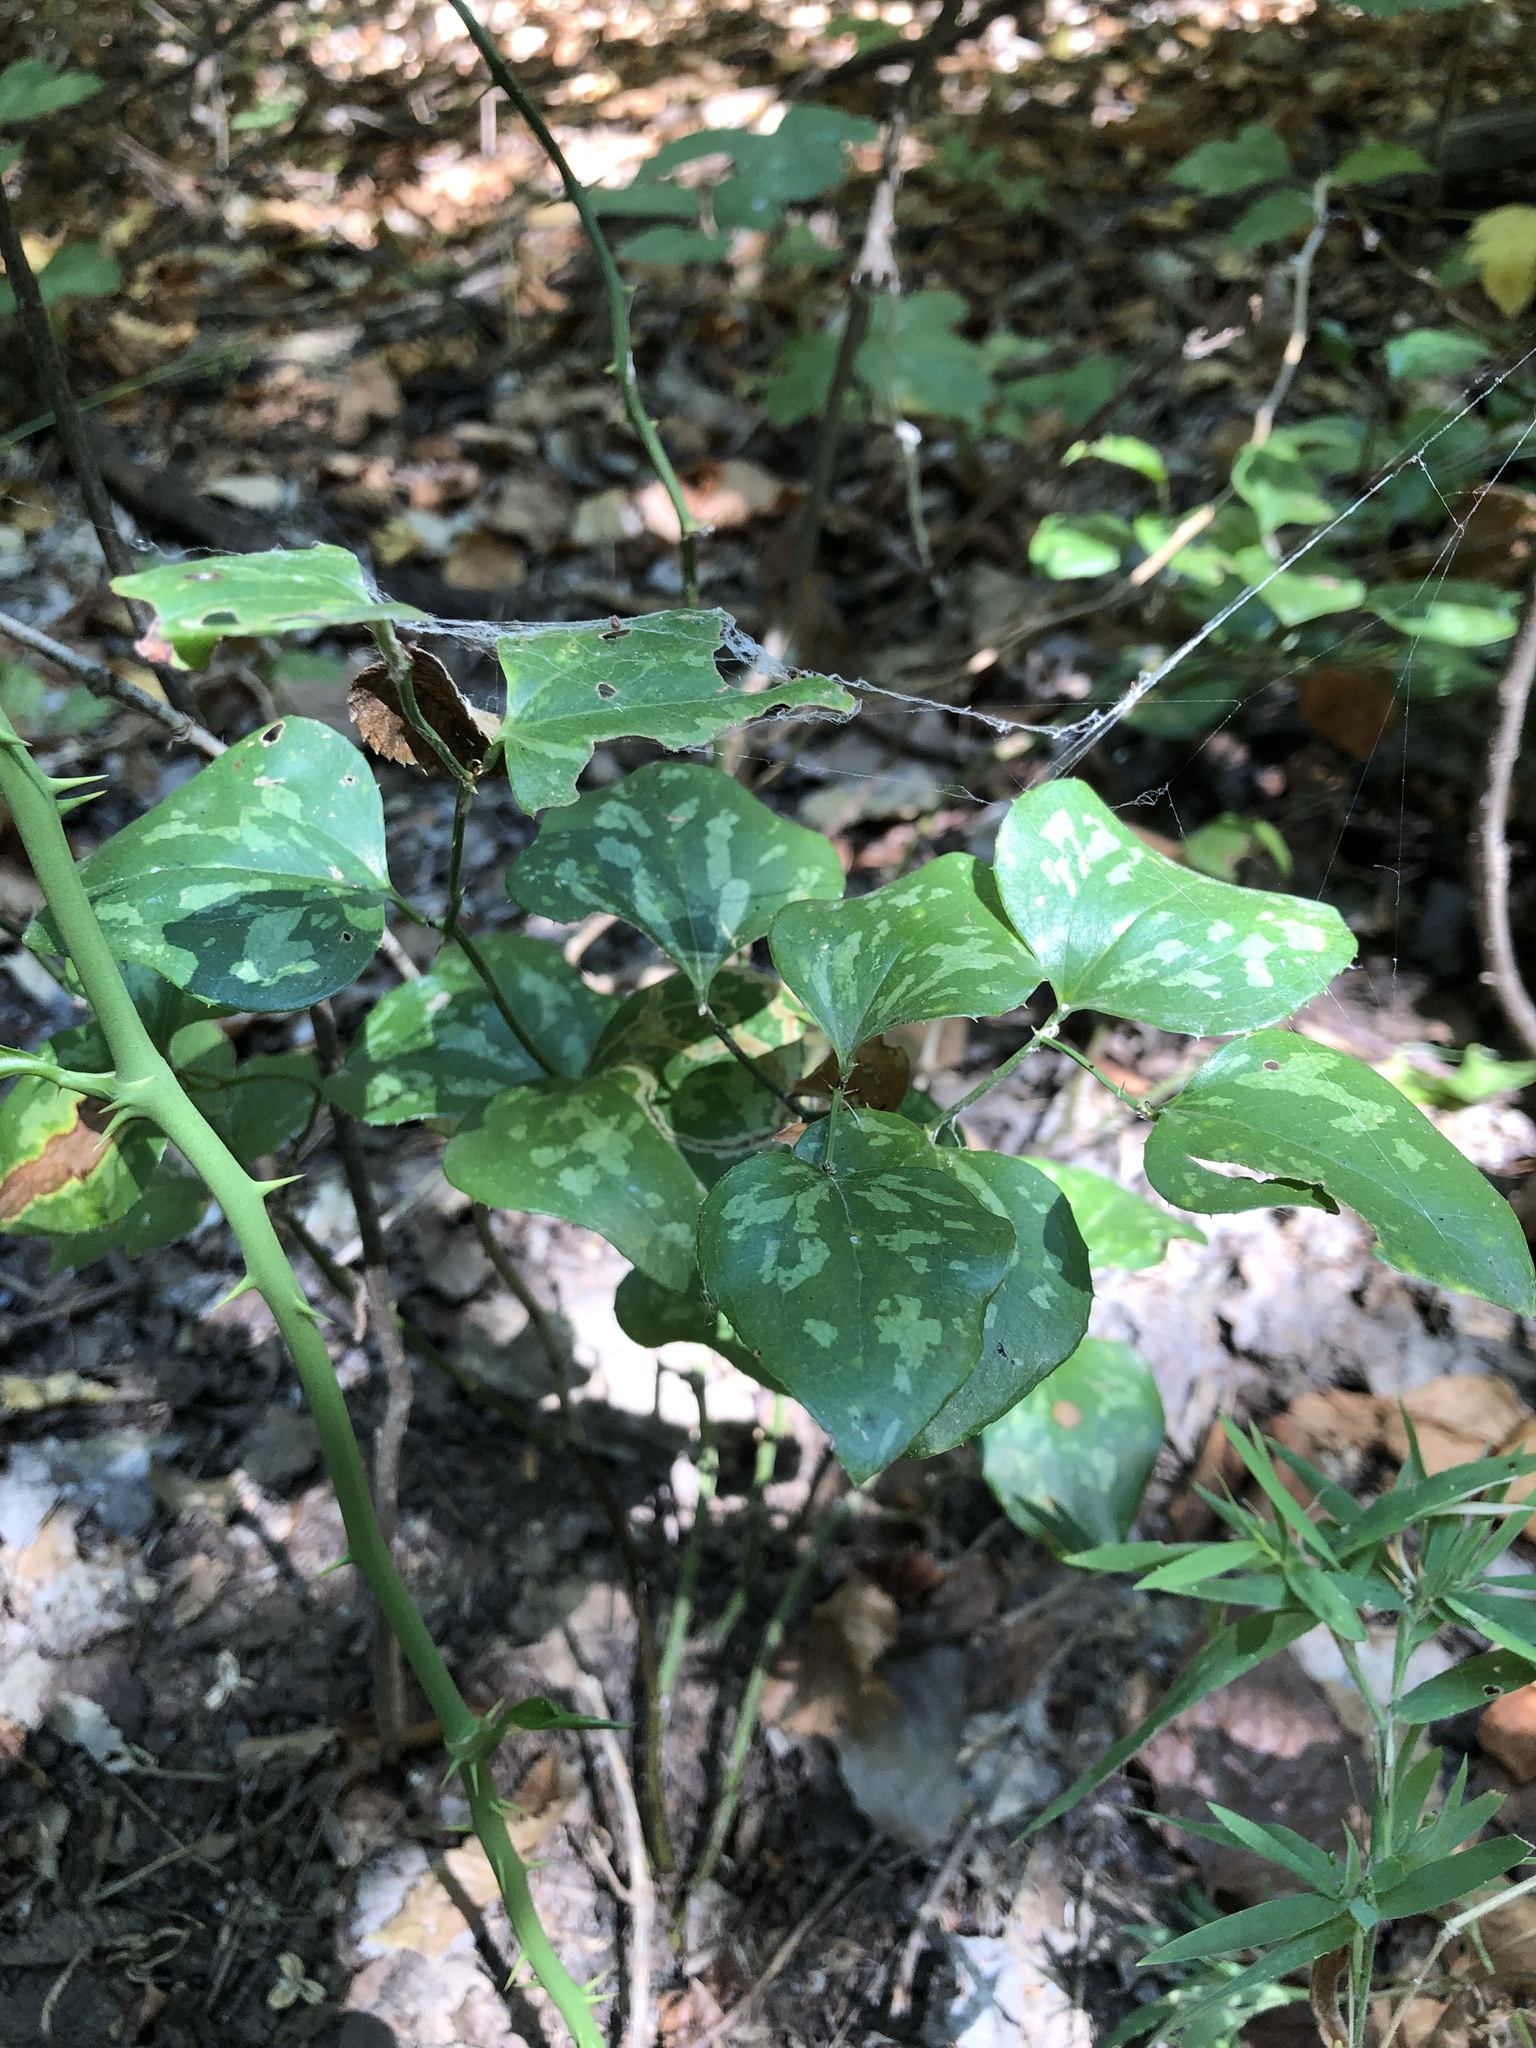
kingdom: Plantae
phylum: Tracheophyta
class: Liliopsida
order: Liliales
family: Smilacaceae
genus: Smilax
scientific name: Smilax bona-nox
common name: Catbrier
